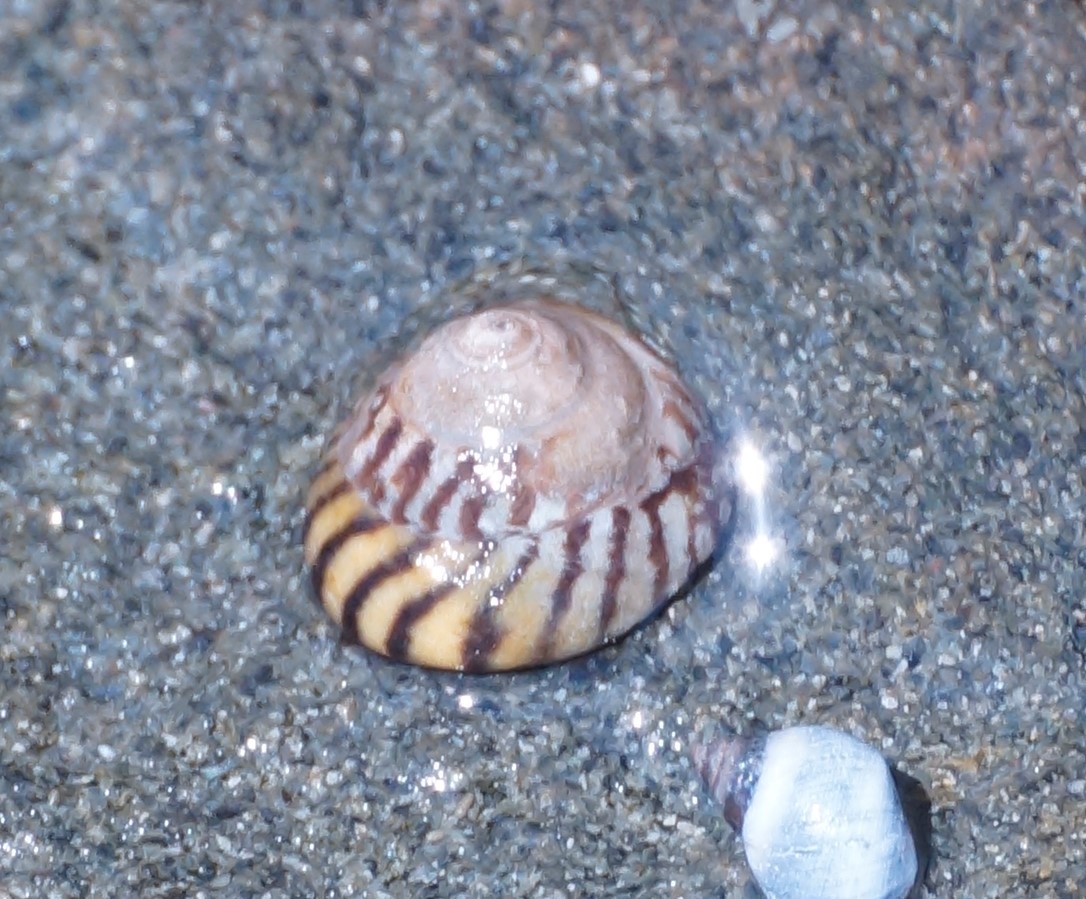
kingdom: Animalia
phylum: Mollusca
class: Gastropoda
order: Littorinimorpha
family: Littorinidae
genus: Bembicium
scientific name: Bembicium nanum
